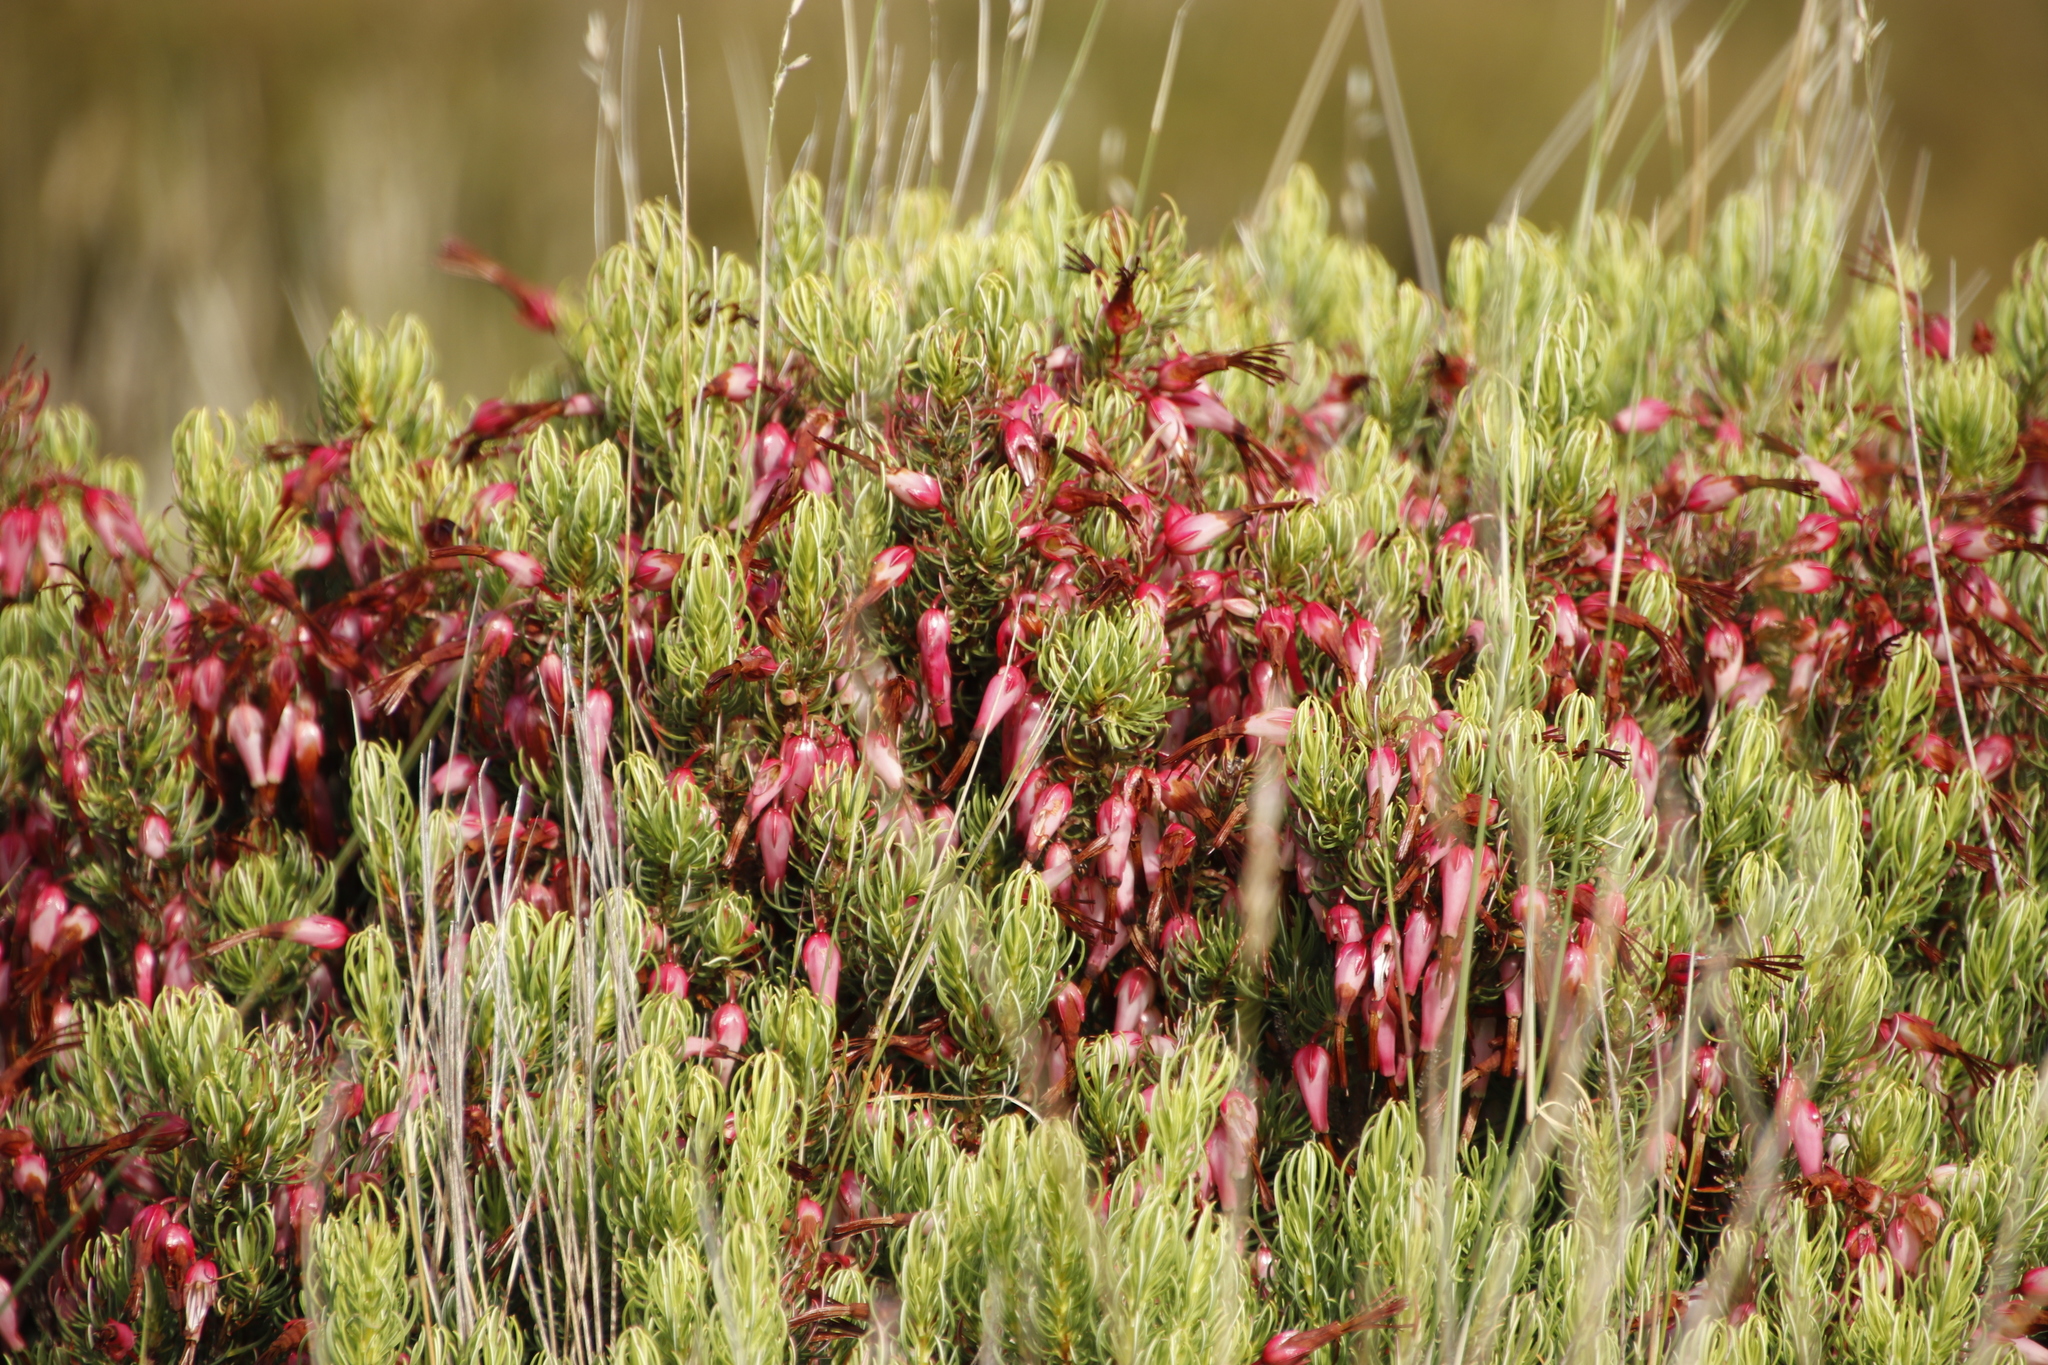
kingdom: Plantae
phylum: Tracheophyta
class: Magnoliopsida
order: Ericales
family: Ericaceae
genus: Erica
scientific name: Erica plukenetii
